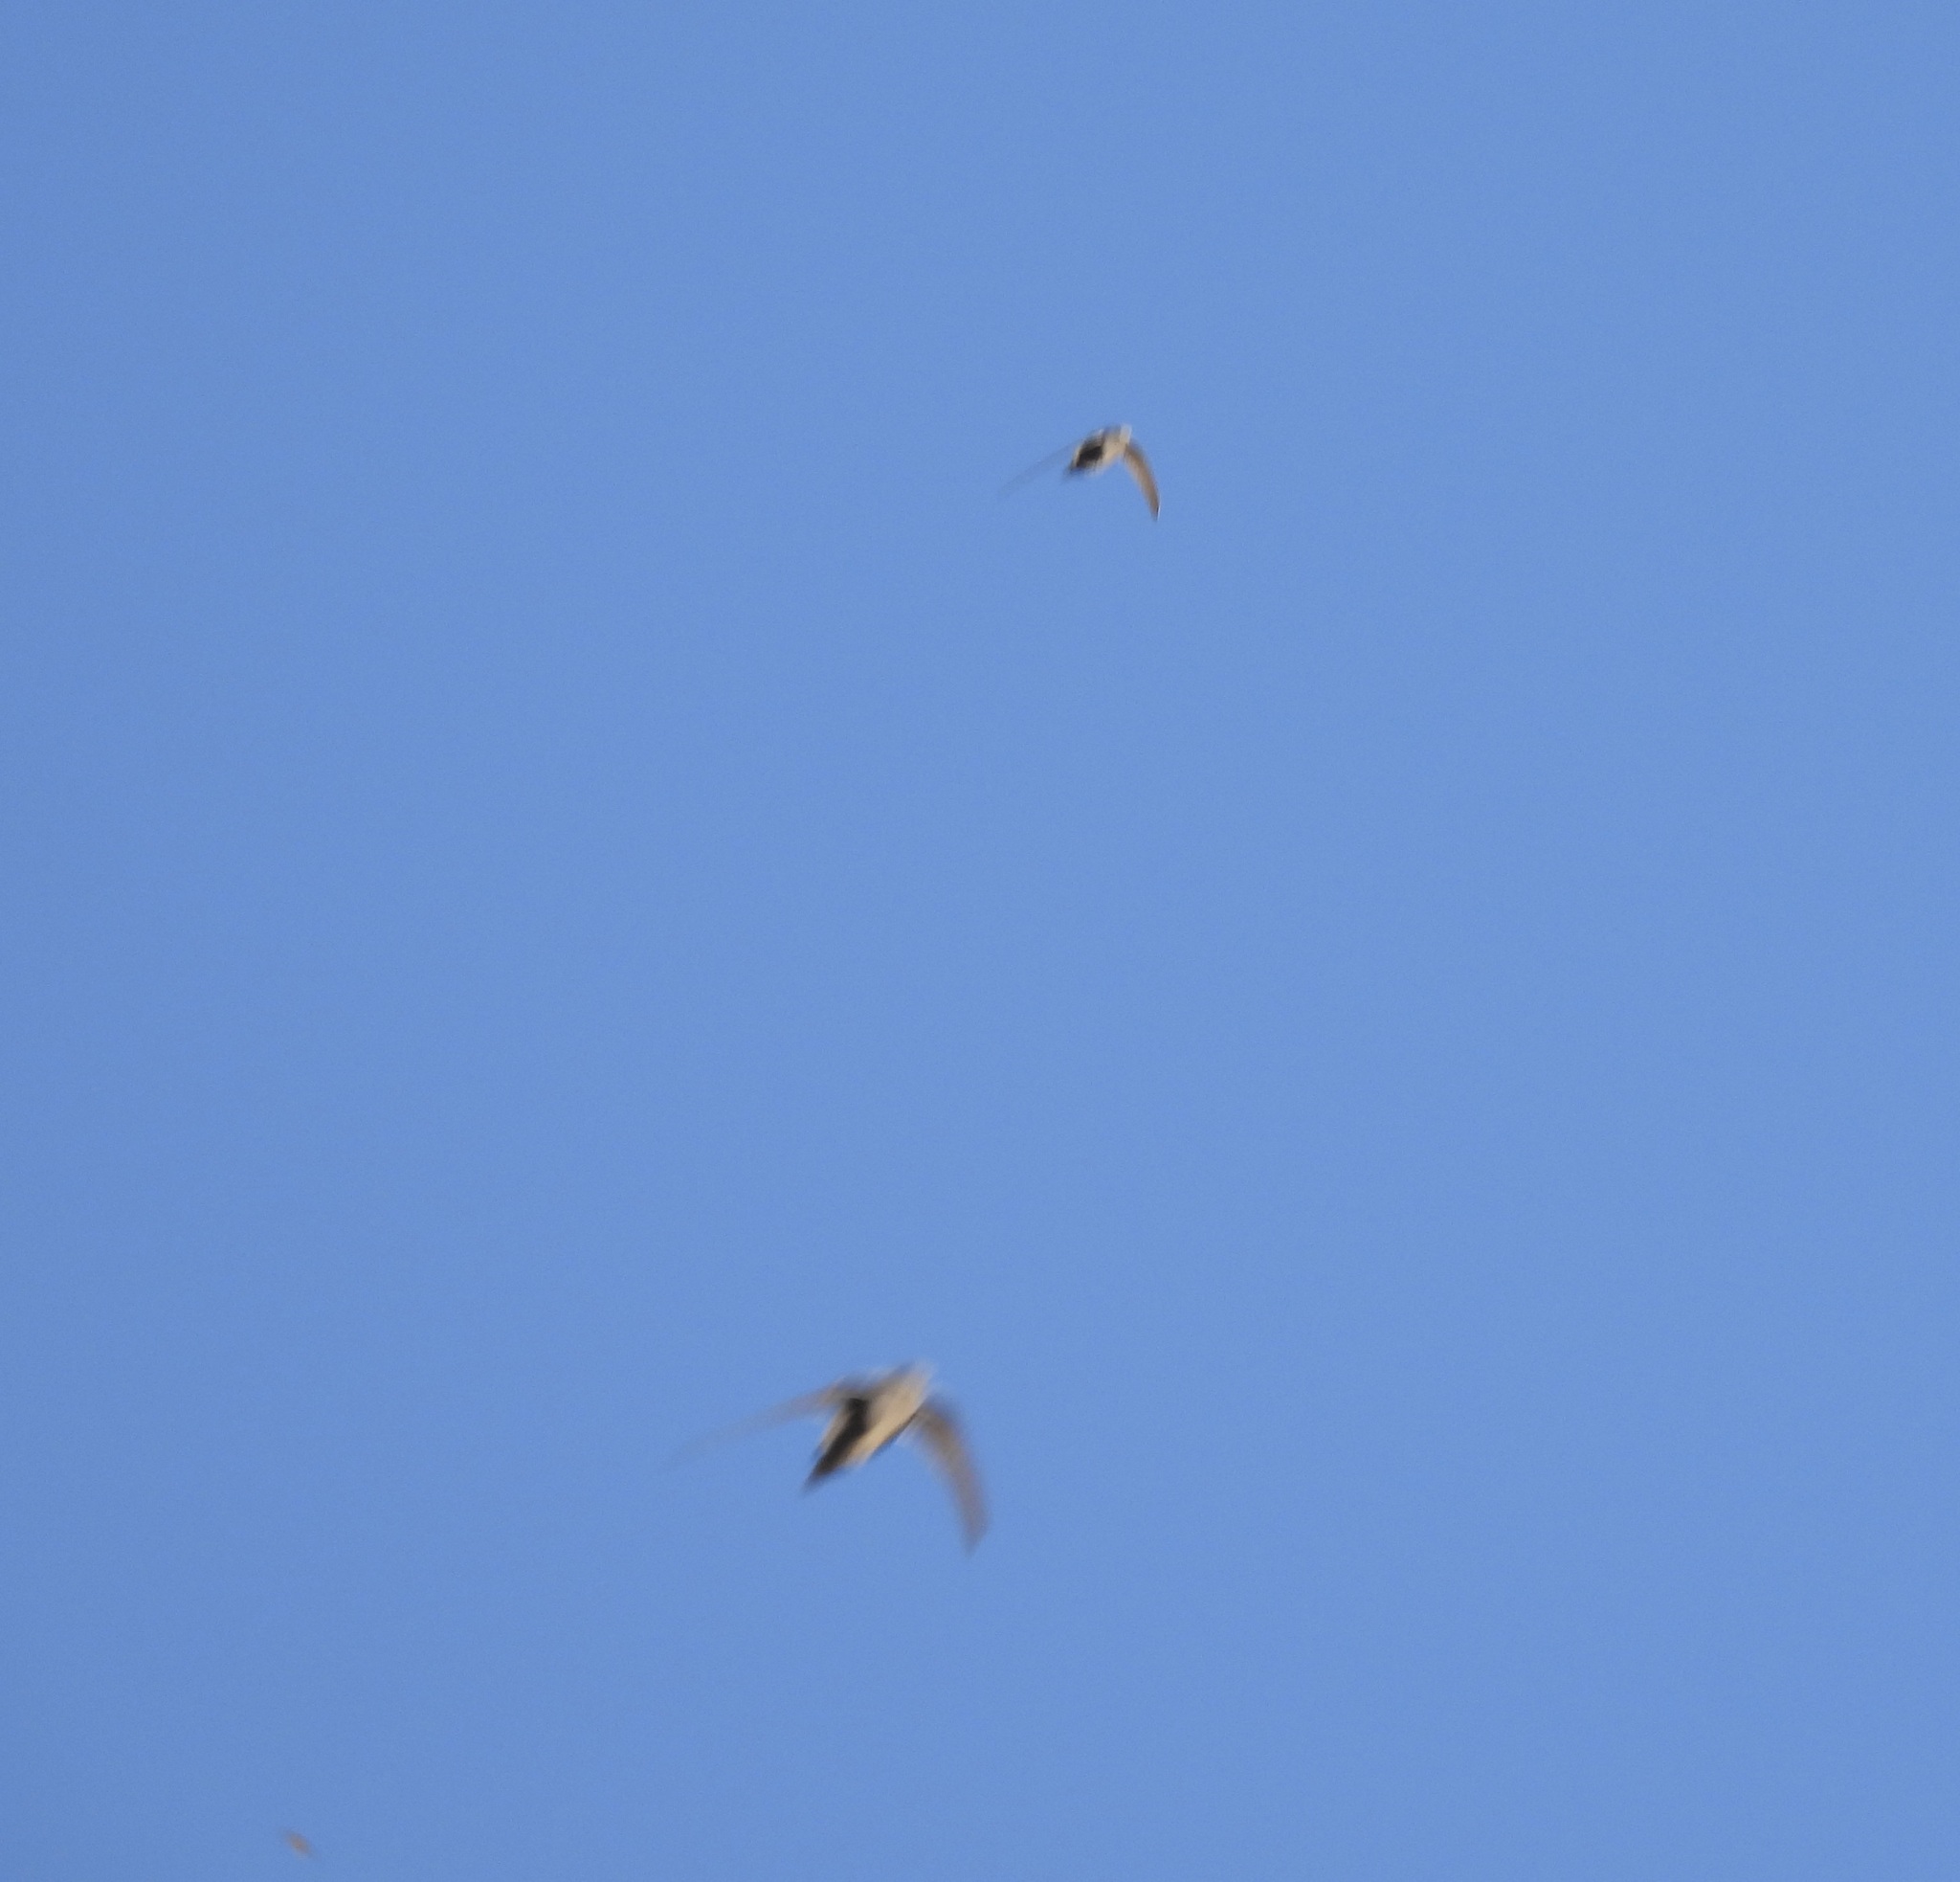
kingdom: Animalia
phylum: Chordata
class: Aves
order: Apodiformes
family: Apodidae
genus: Aeronautes
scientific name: Aeronautes saxatalis
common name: White-throated swift
